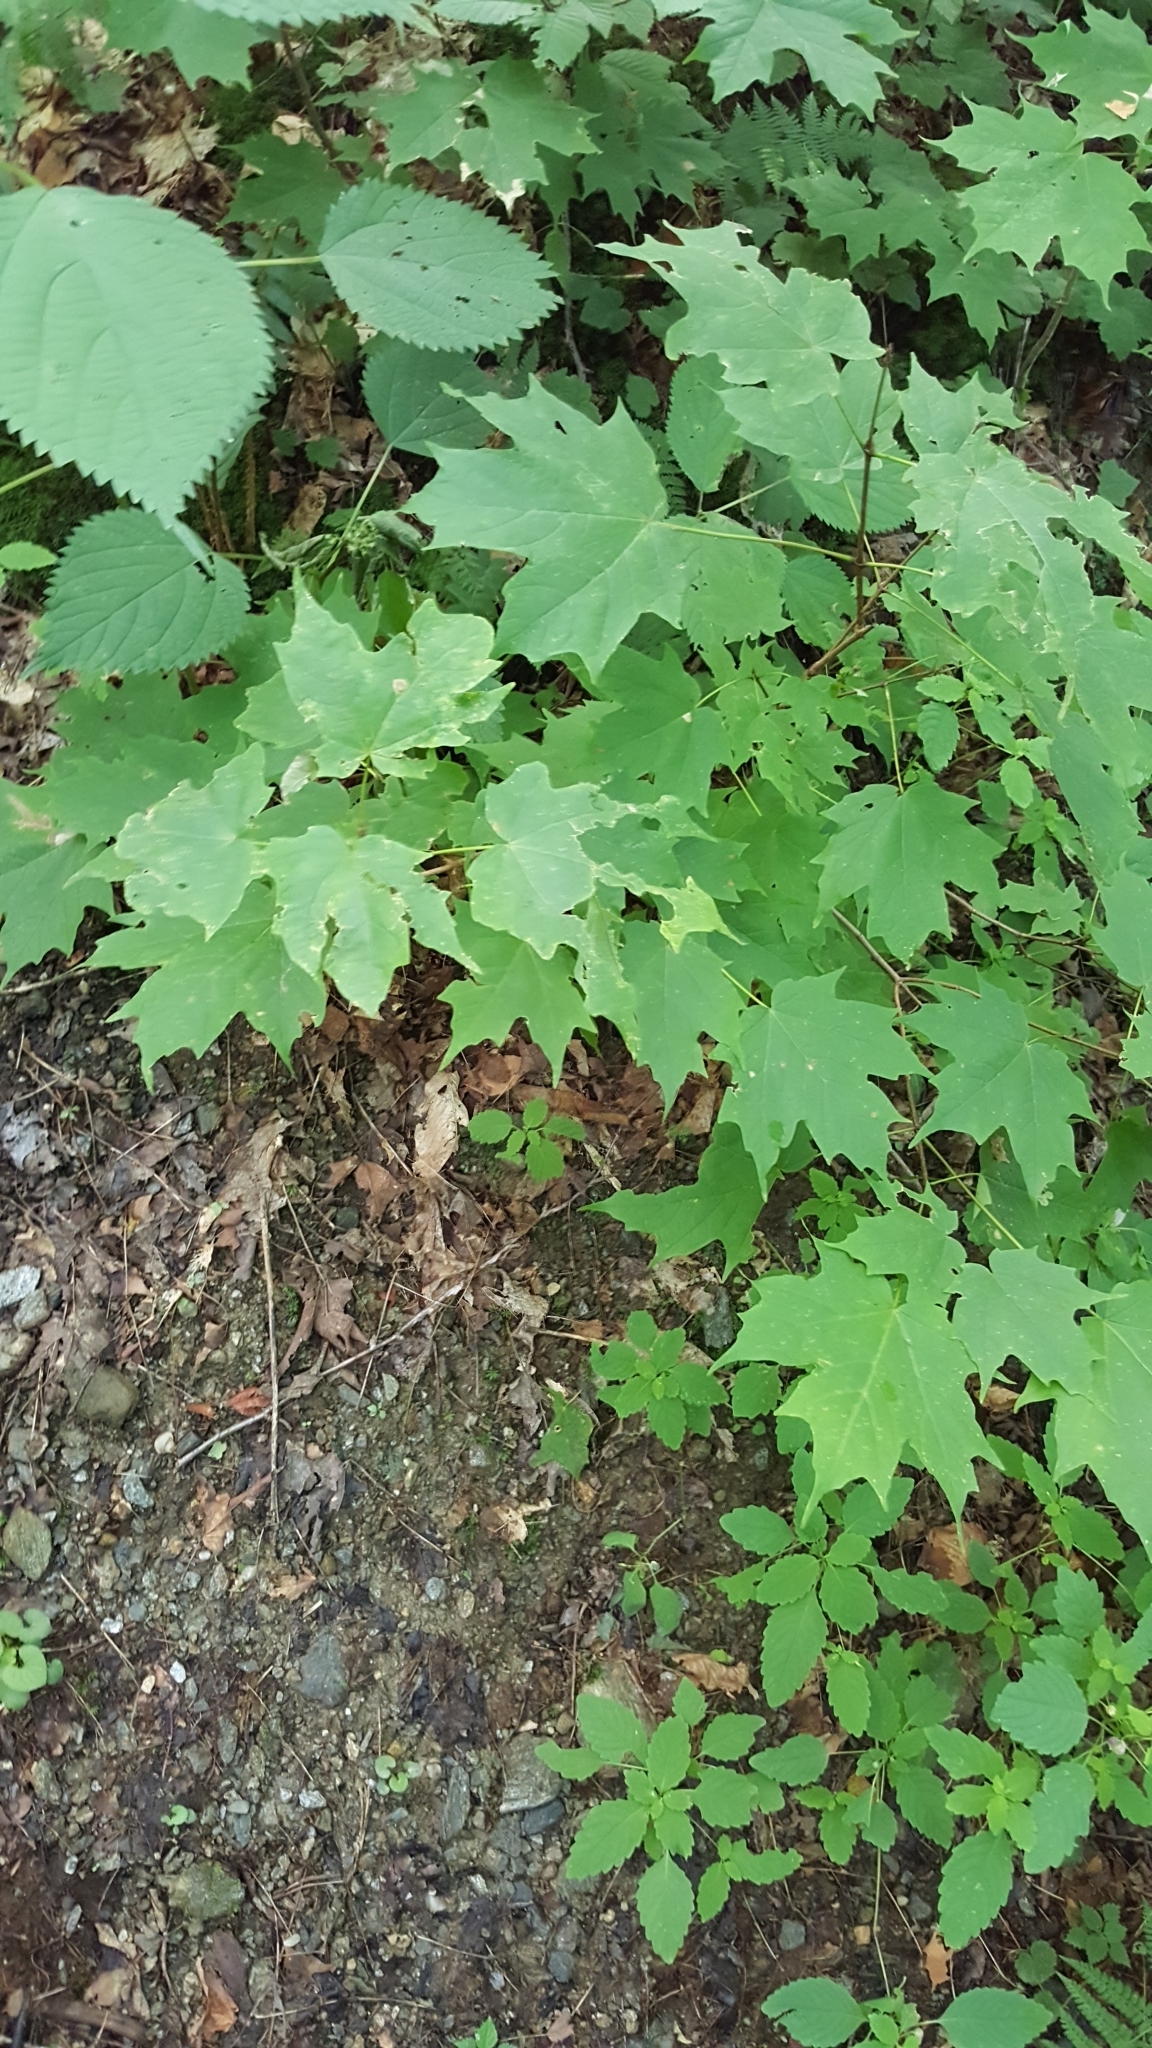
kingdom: Plantae
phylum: Tracheophyta
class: Magnoliopsida
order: Sapindales
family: Sapindaceae
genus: Acer
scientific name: Acer saccharum
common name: Sugar maple
